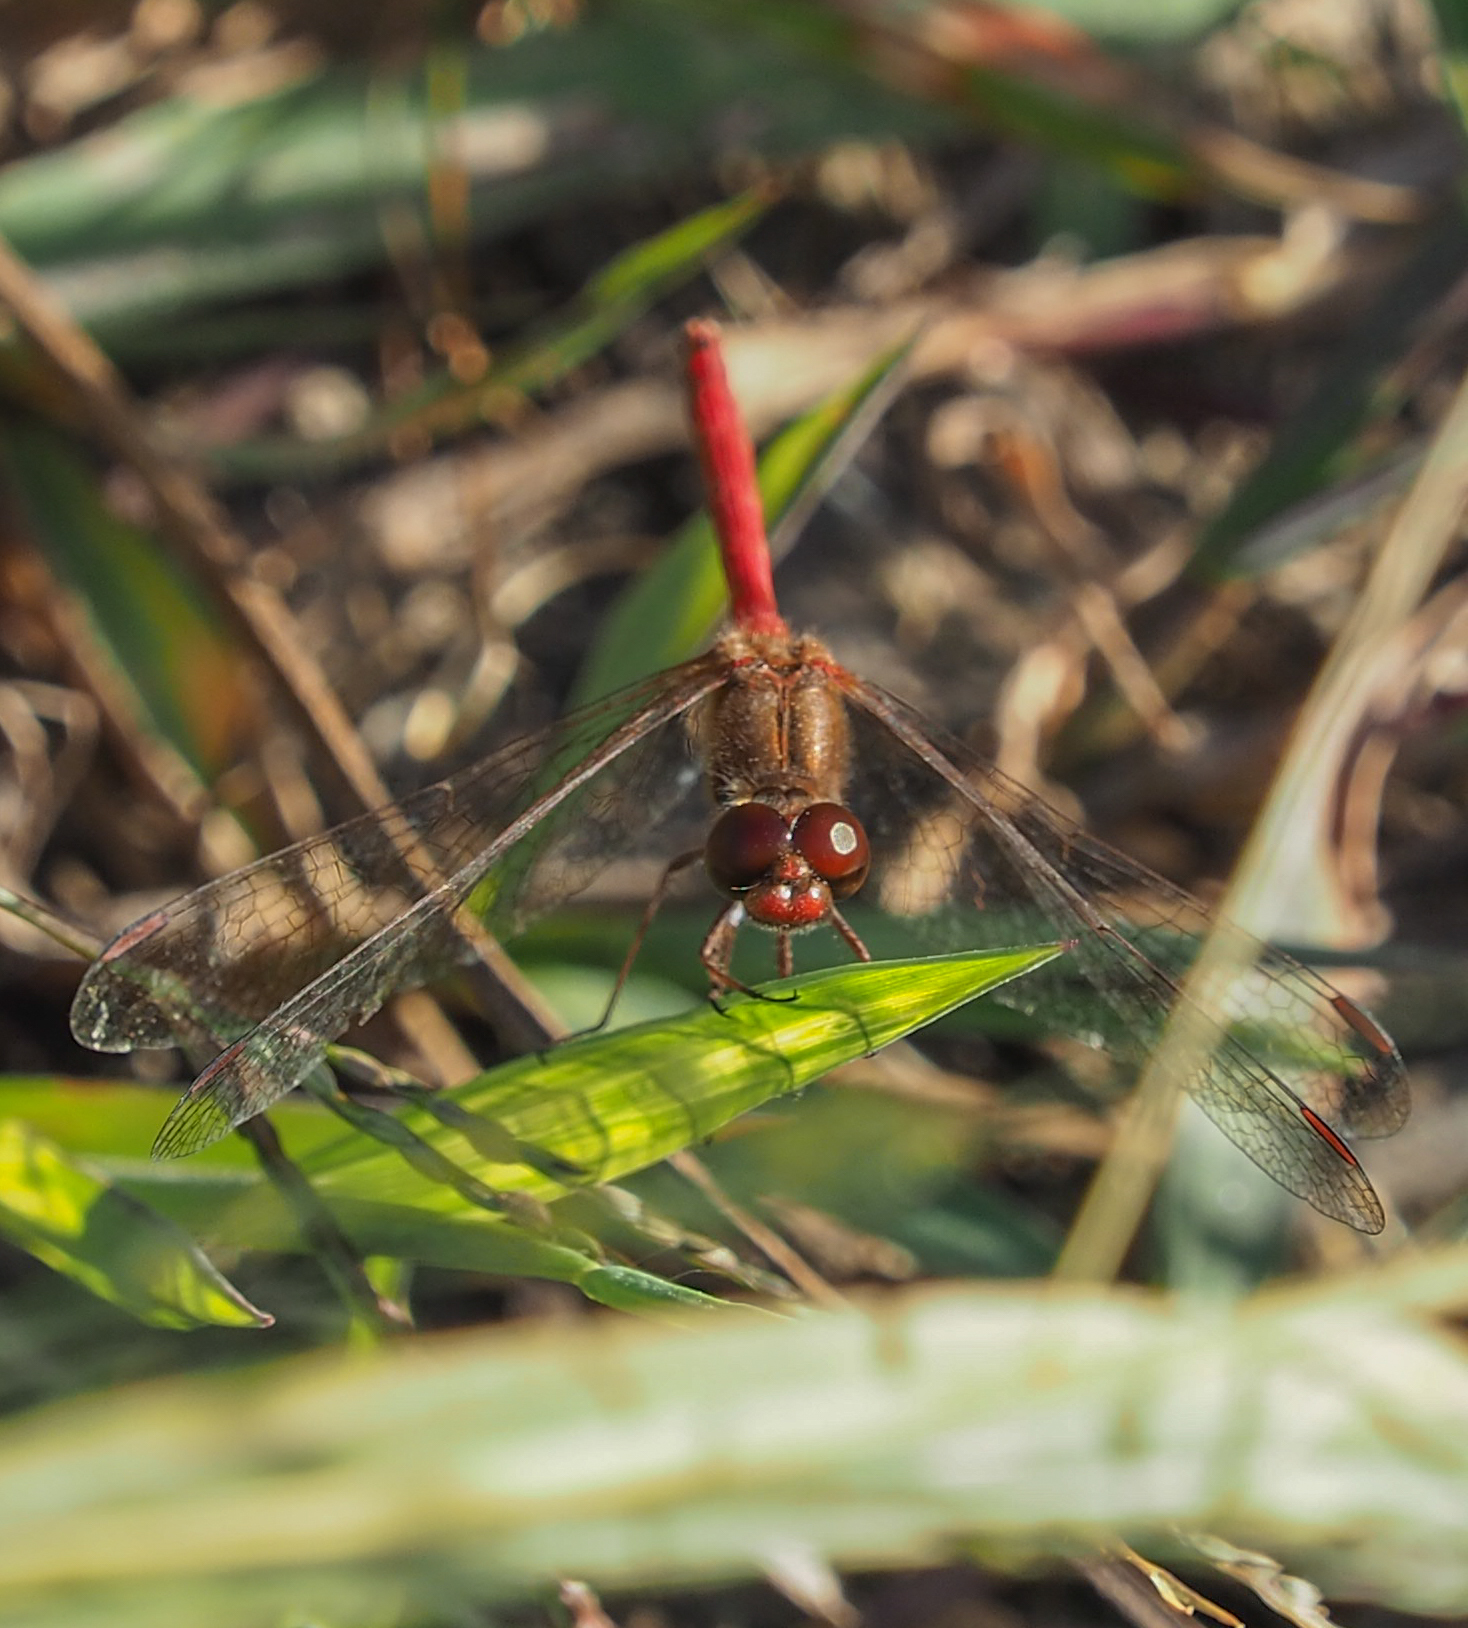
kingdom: Animalia
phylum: Arthropoda
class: Insecta
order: Odonata
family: Libellulidae
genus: Sympetrum
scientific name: Sympetrum vicinum
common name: Autumn meadowhawk
